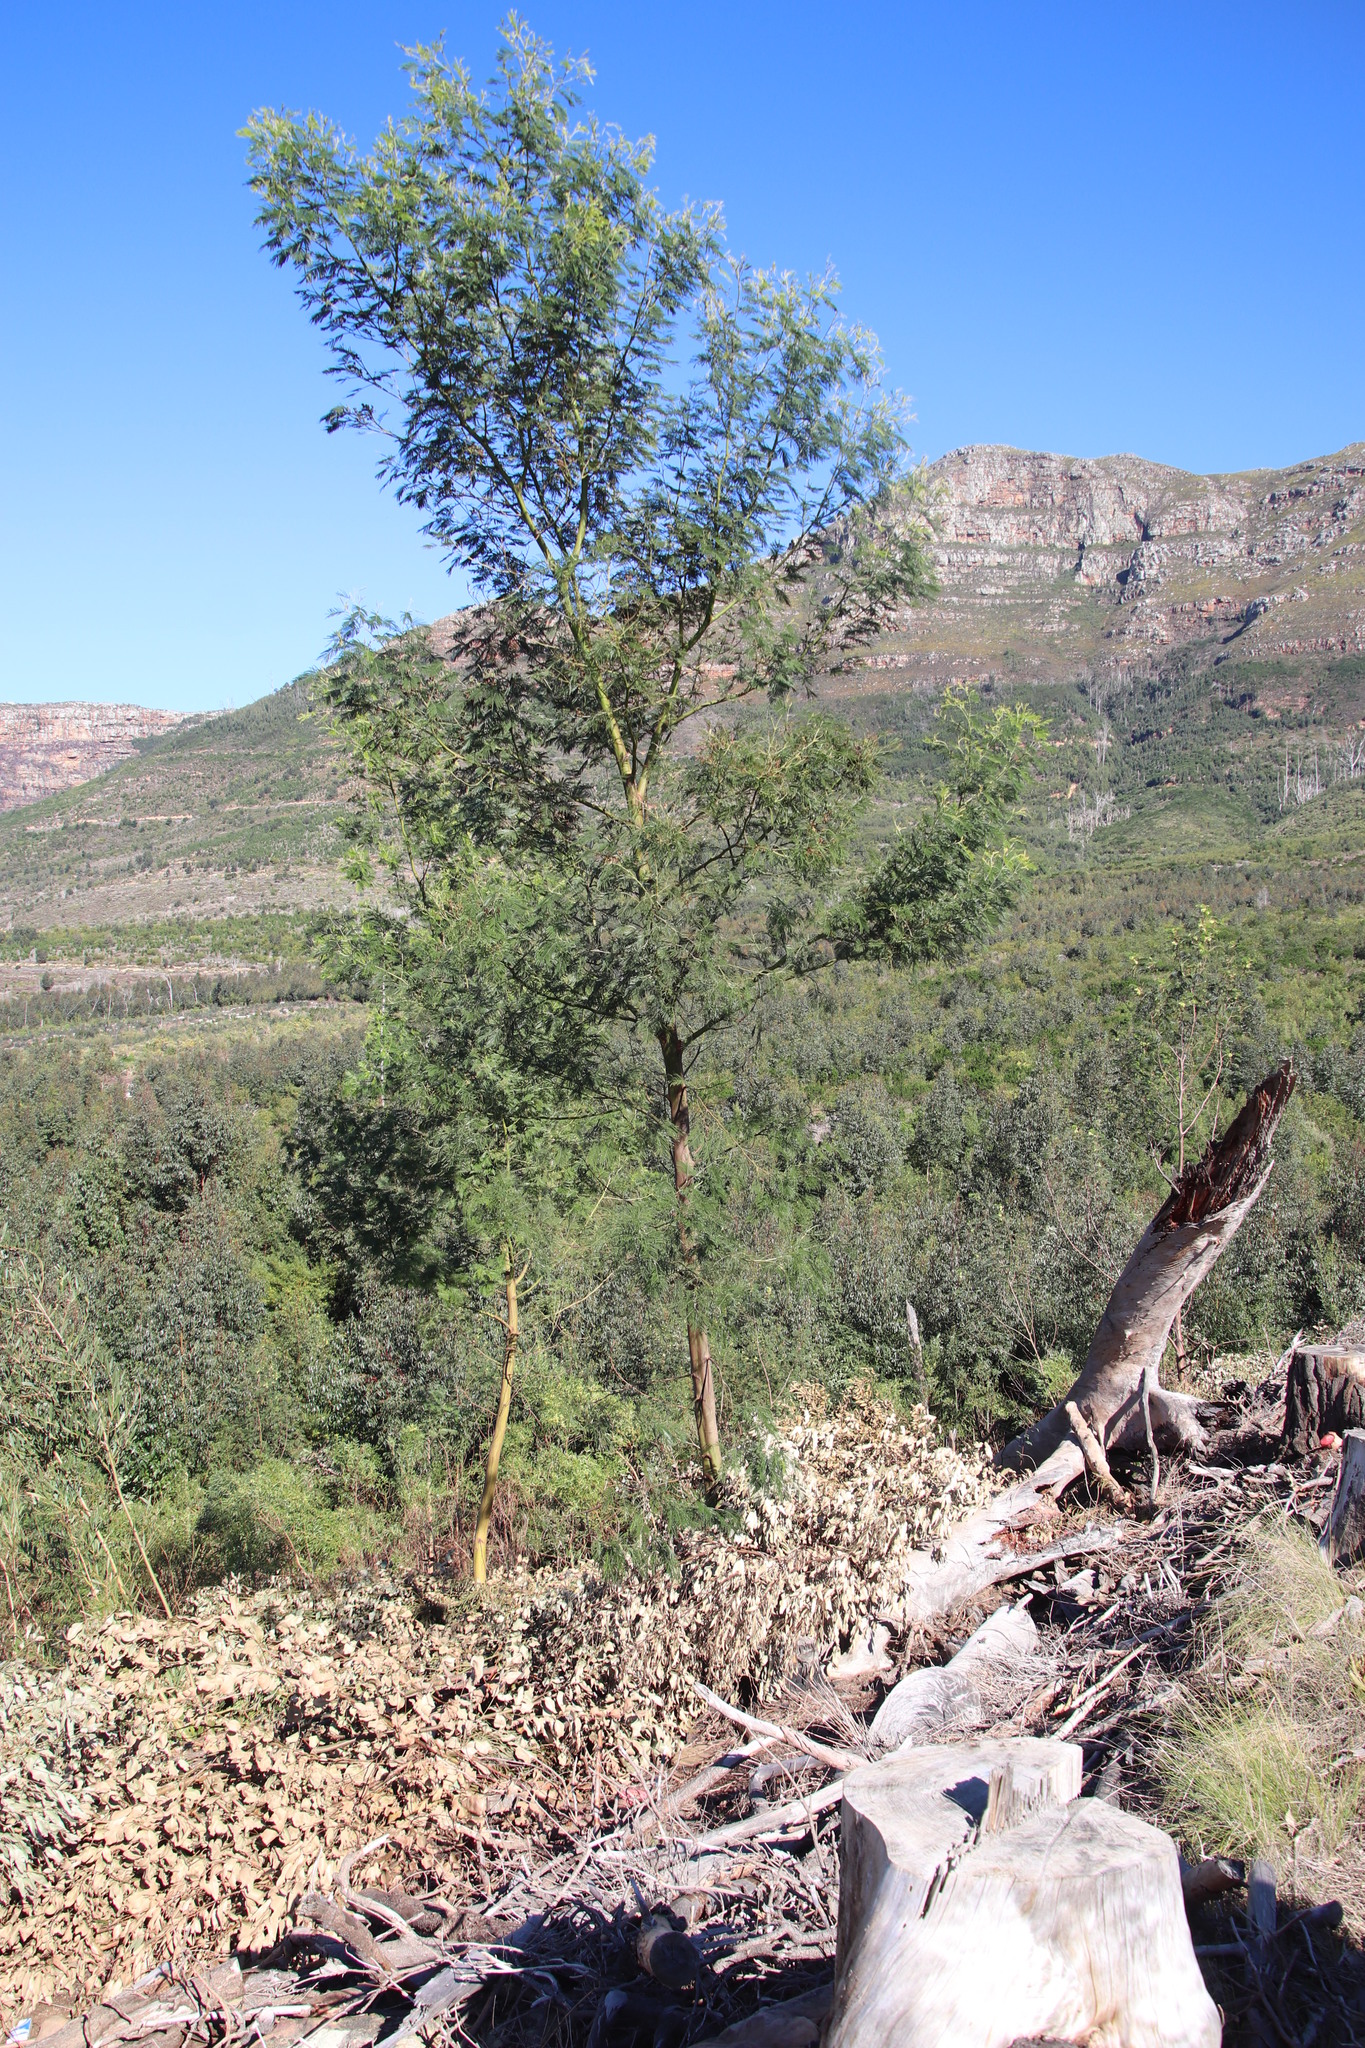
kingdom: Plantae
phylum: Tracheophyta
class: Magnoliopsida
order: Fabales
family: Fabaceae
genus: Acacia
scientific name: Acacia mearnsii
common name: Black wattle
